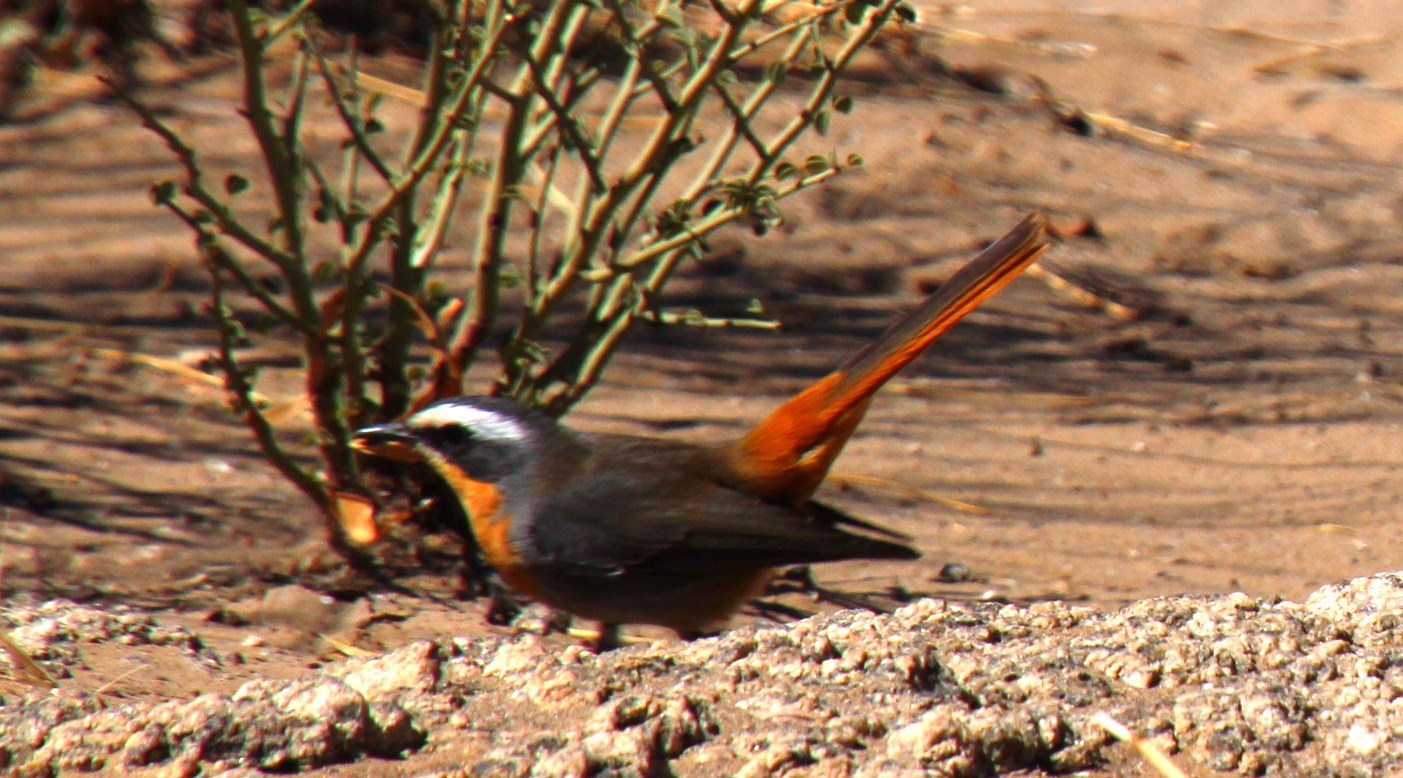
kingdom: Animalia
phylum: Chordata
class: Aves
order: Passeriformes
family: Muscicapidae
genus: Cossypha
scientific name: Cossypha caffra
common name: Cape robin-chat
